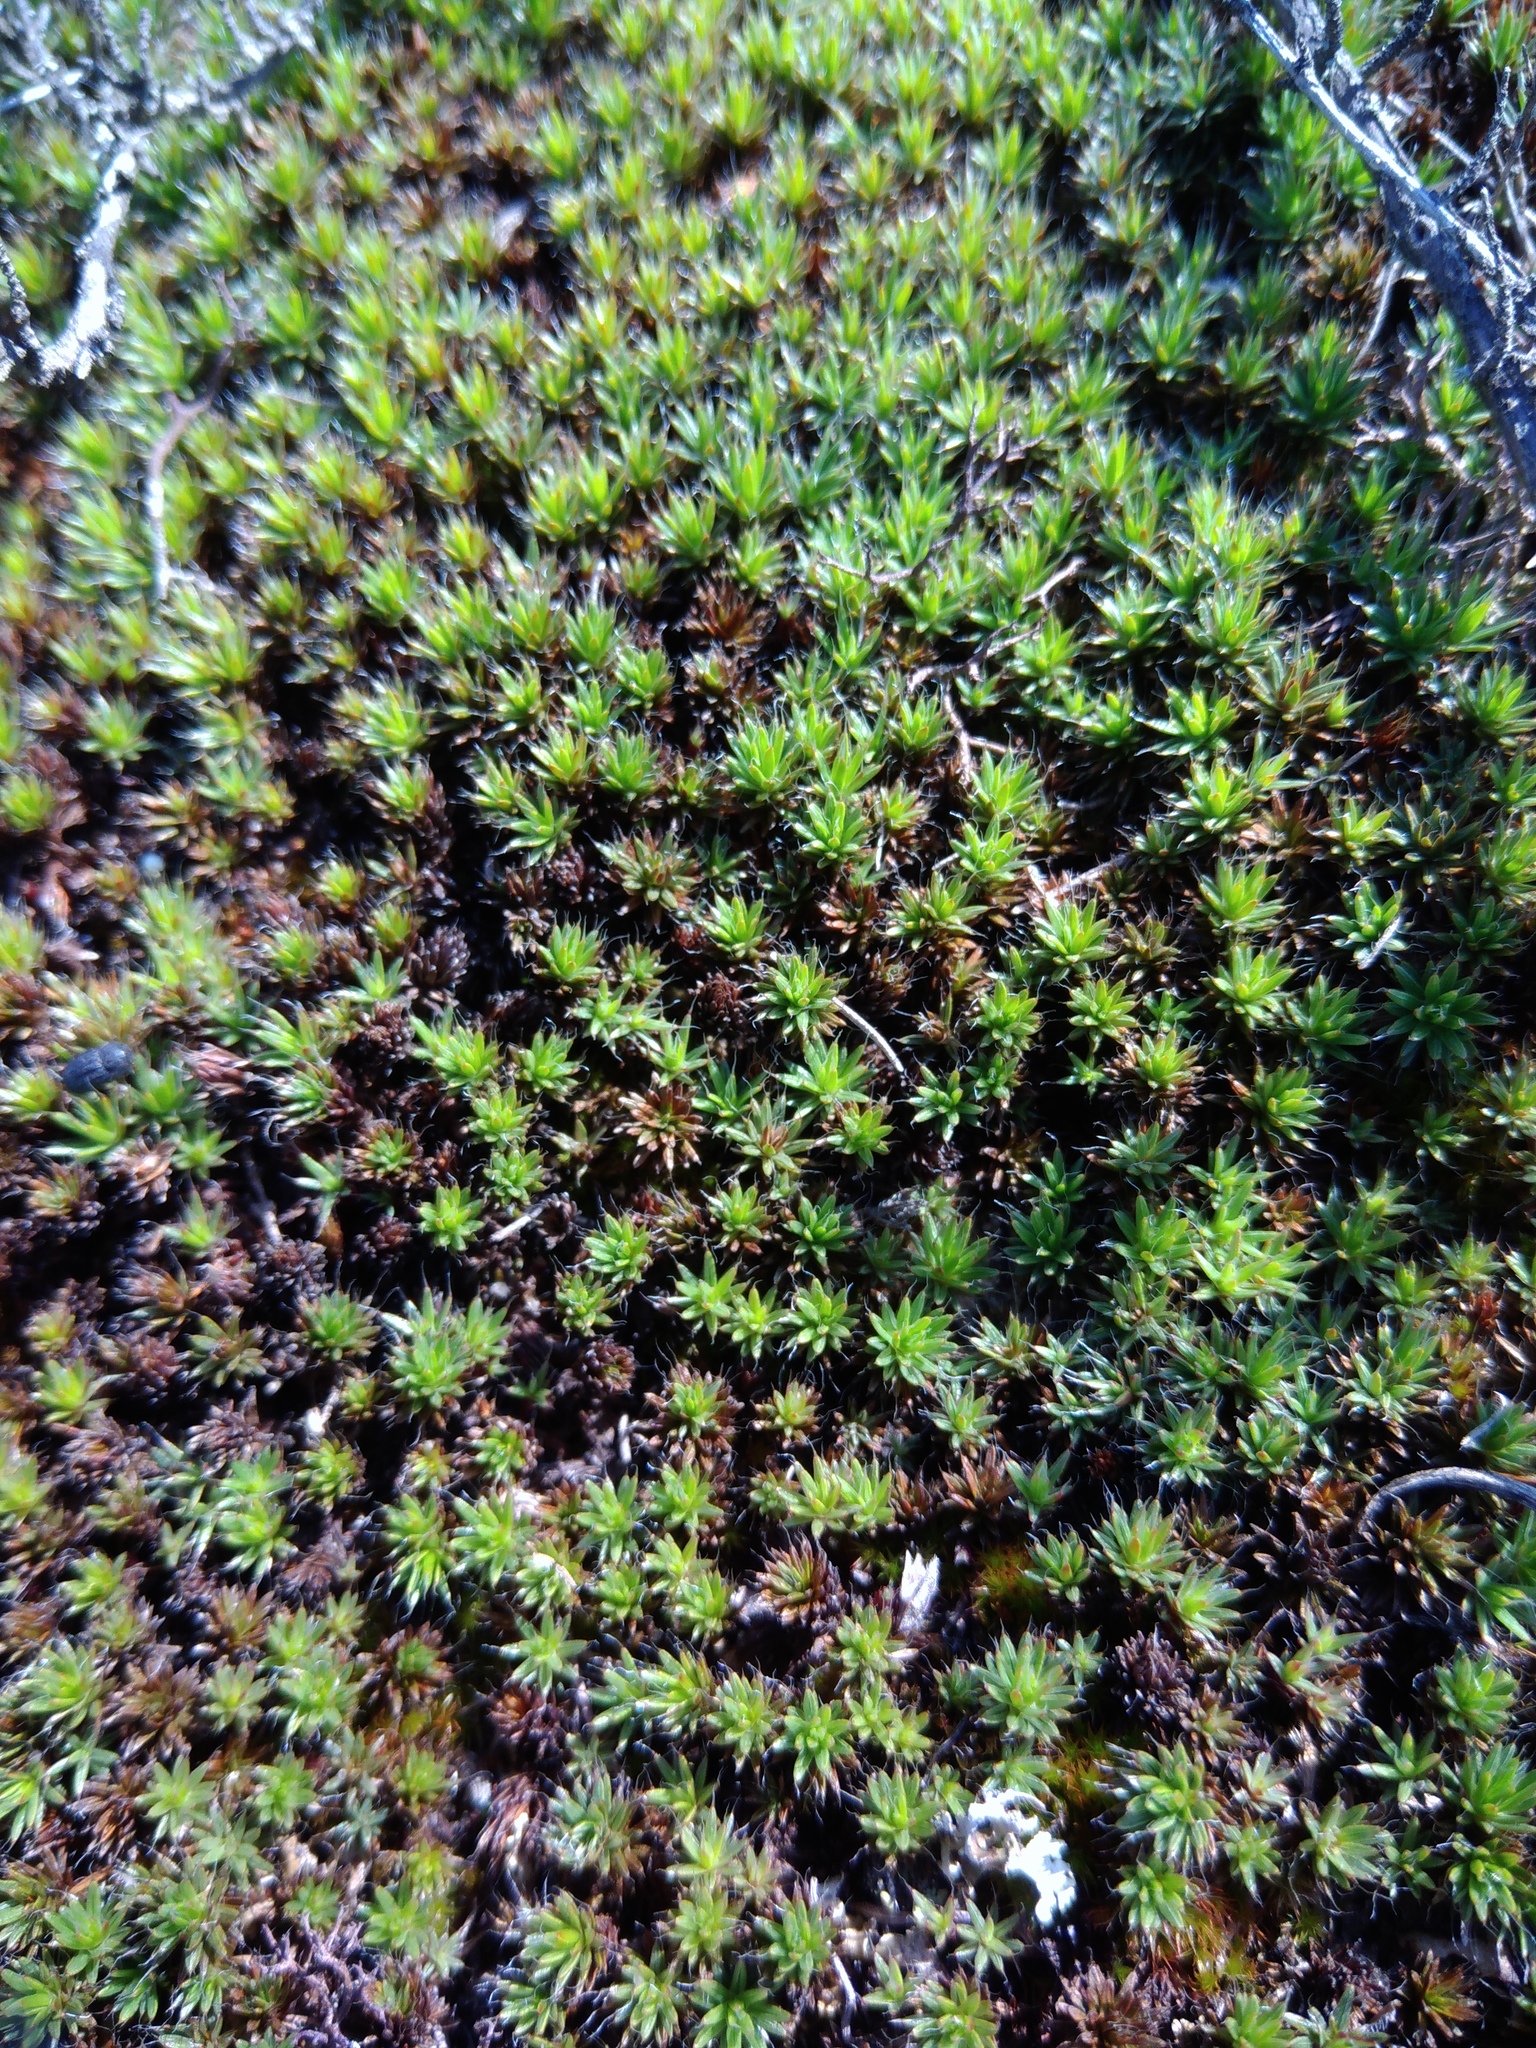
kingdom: Plantae
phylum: Bryophyta
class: Polytrichopsida
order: Polytrichales
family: Polytrichaceae
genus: Polytrichum
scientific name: Polytrichum piliferum
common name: Bristly haircap
